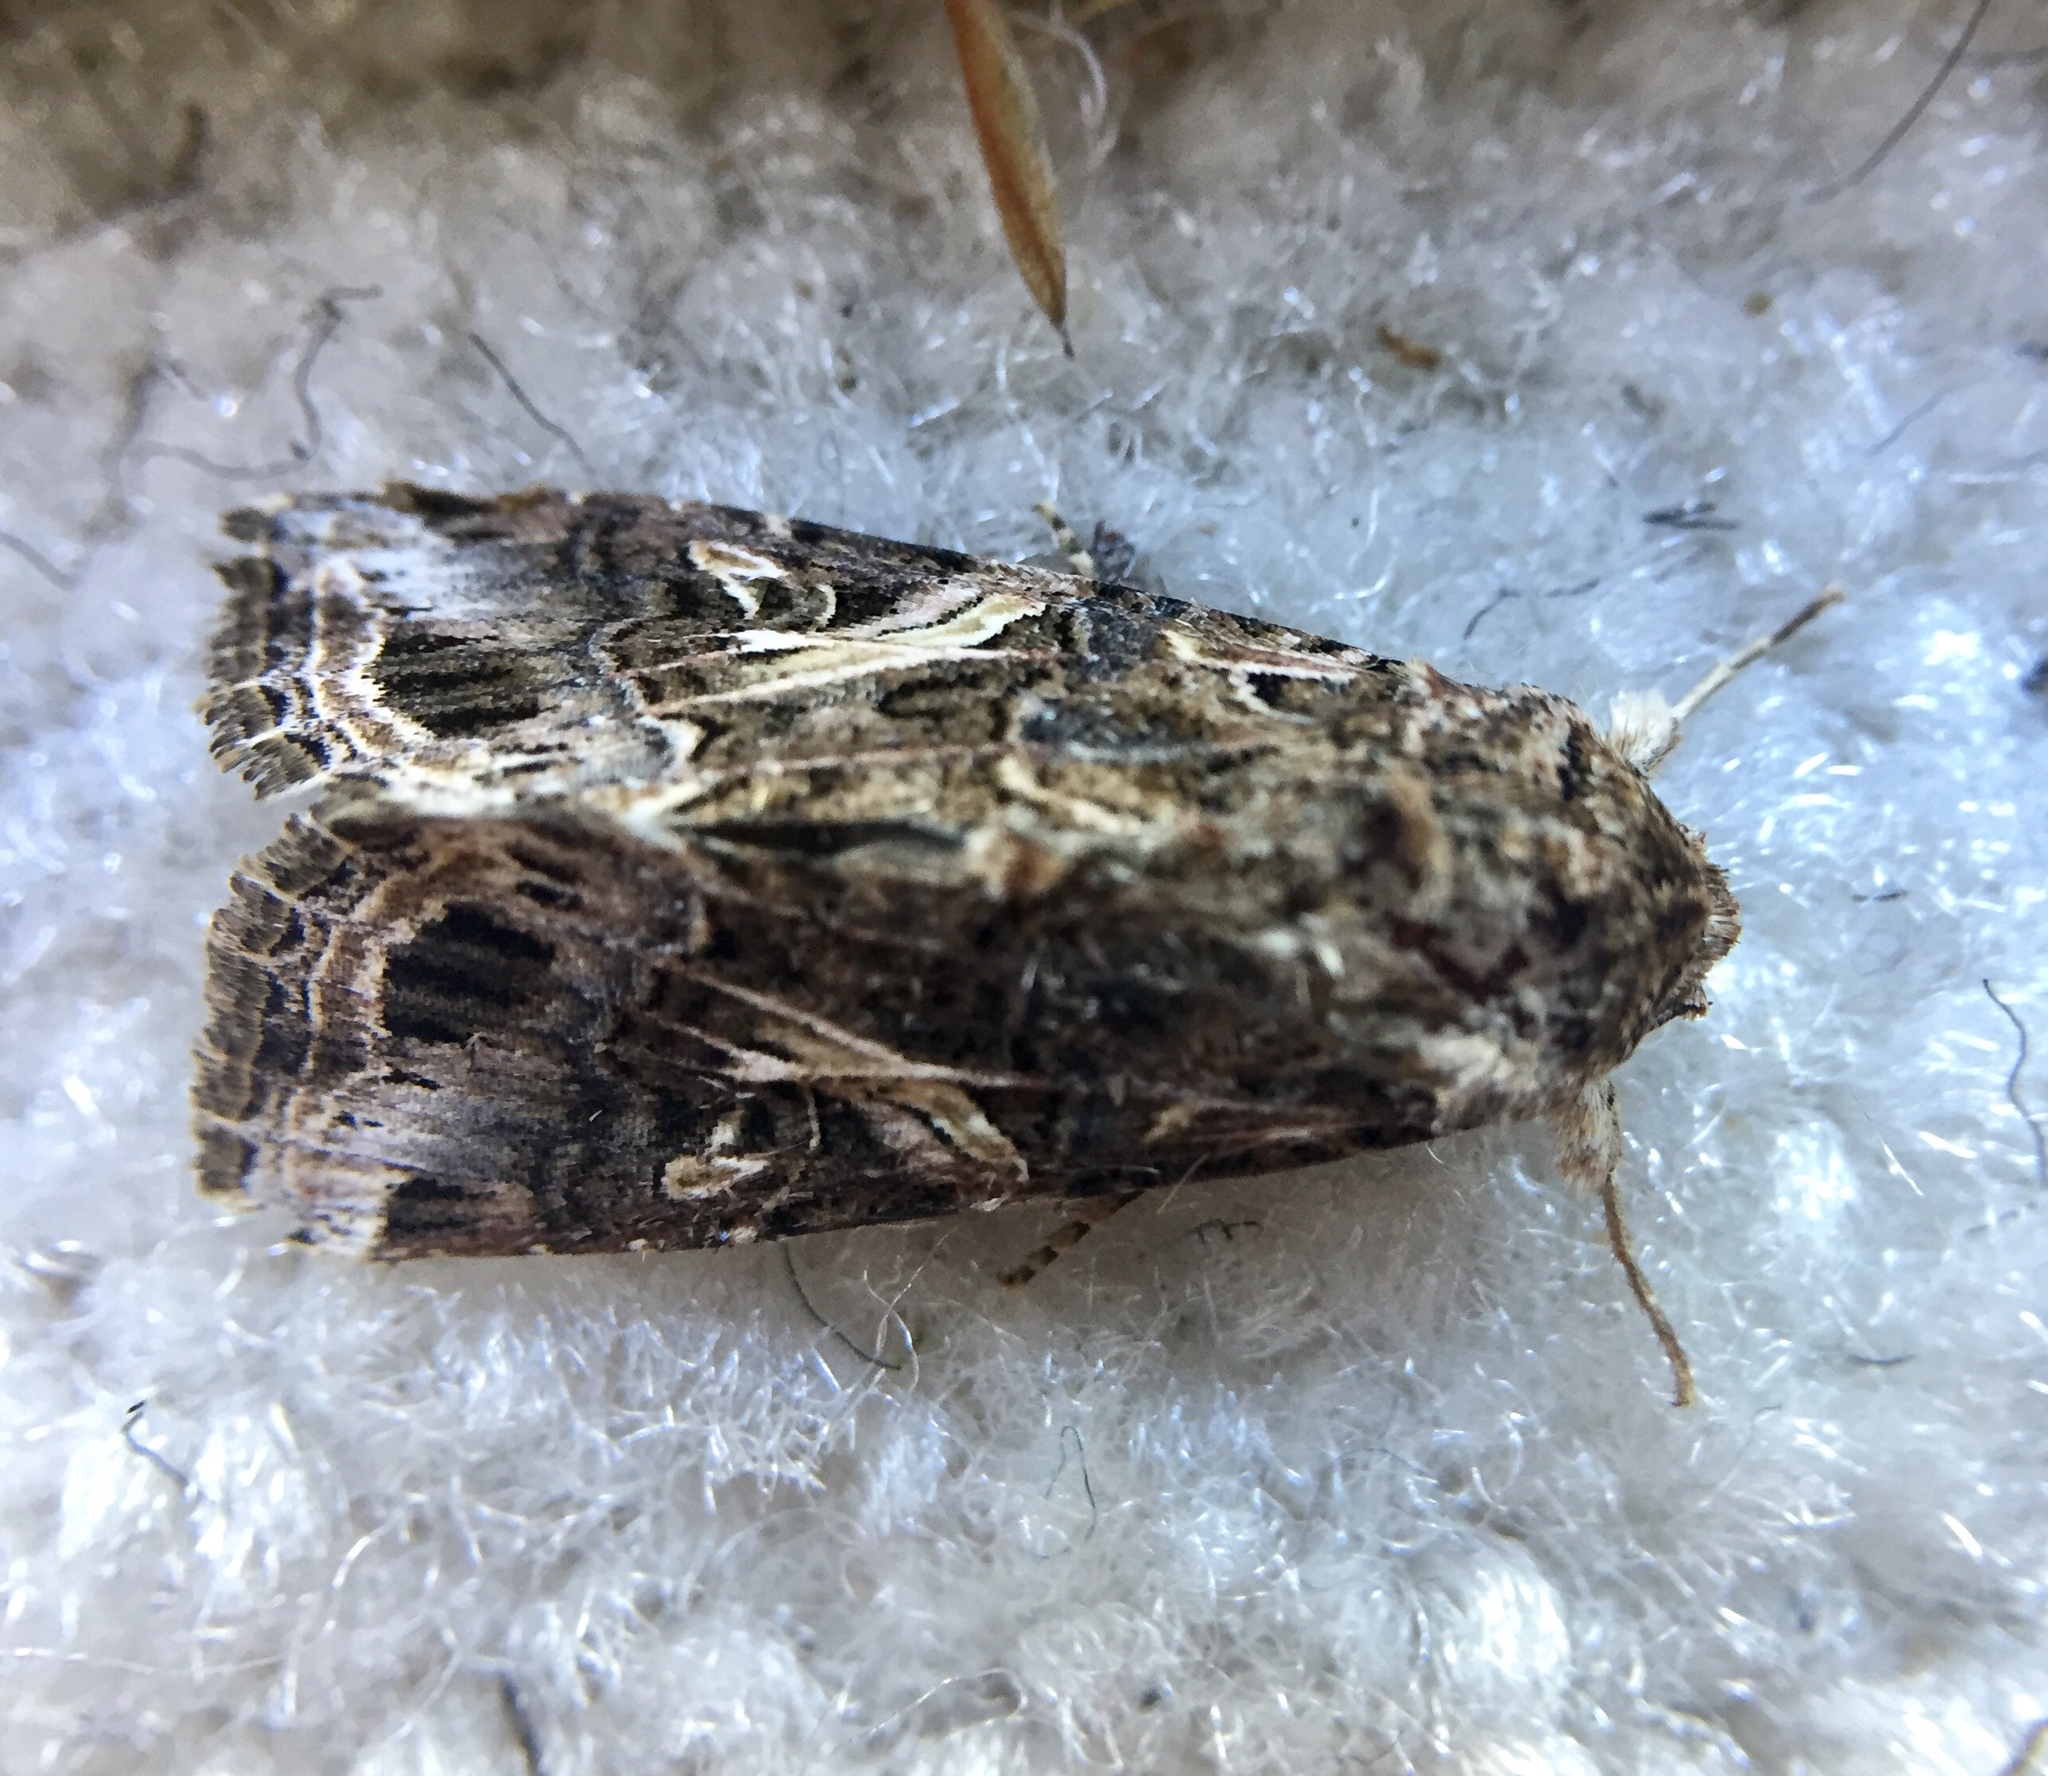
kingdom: Animalia
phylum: Arthropoda
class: Insecta
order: Lepidoptera
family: Noctuidae
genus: Spodoptera
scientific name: Spodoptera ornithogalli
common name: Yellow-striped armyworm
